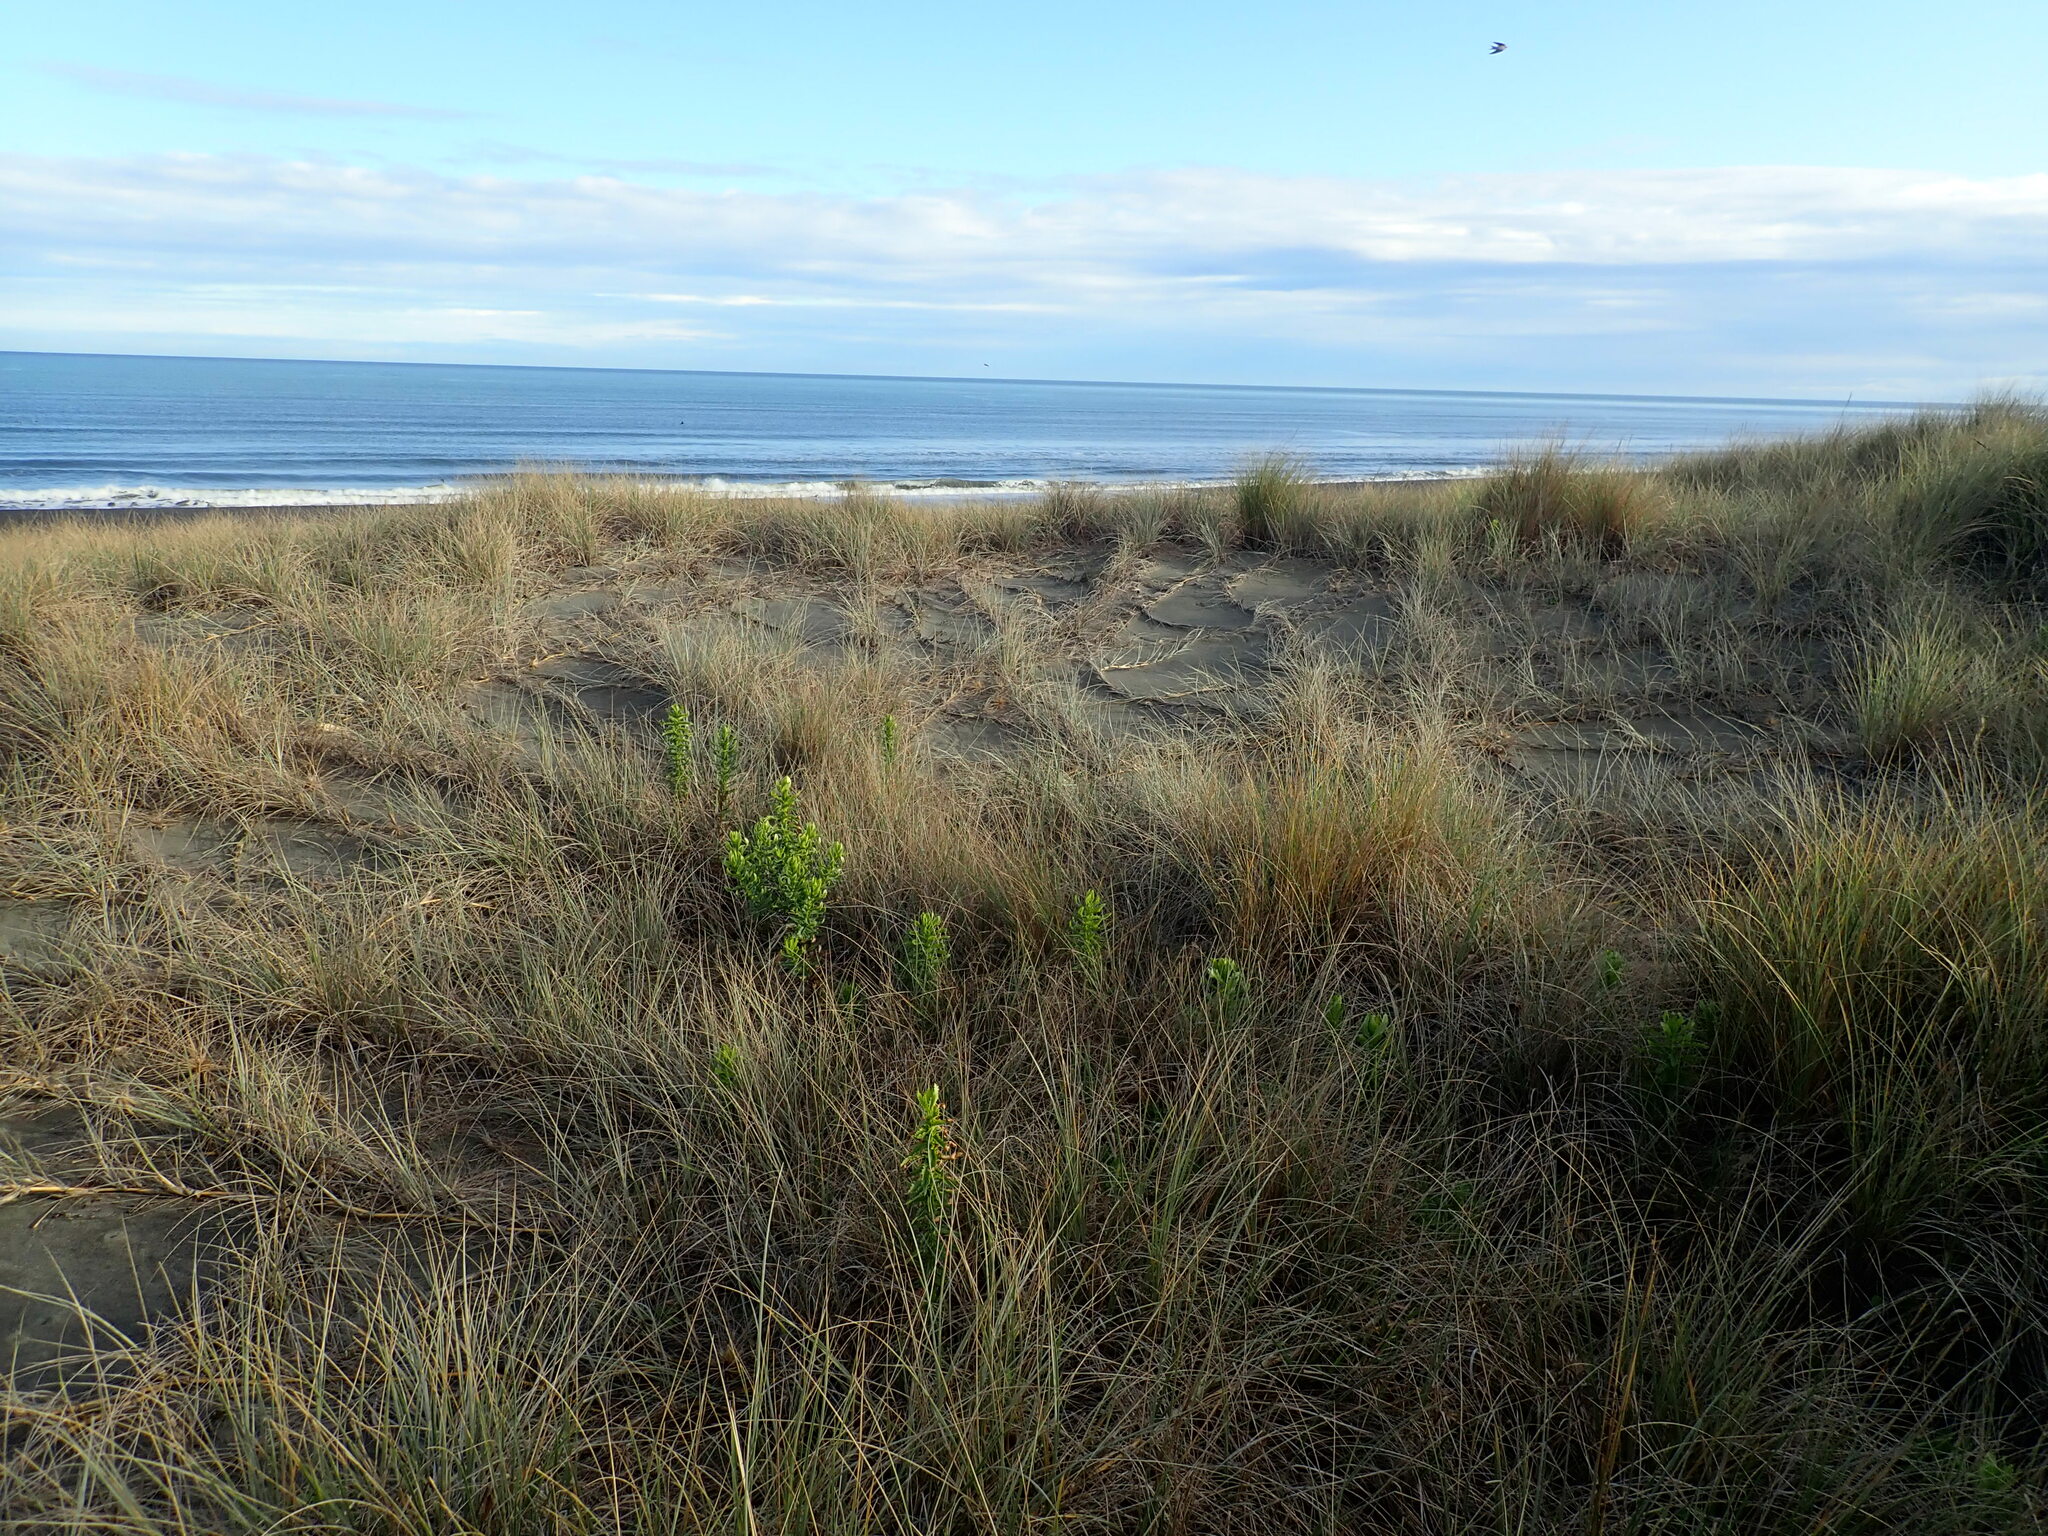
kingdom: Plantae
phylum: Tracheophyta
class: Magnoliopsida
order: Asterales
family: Asteraceae
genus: Senecio
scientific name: Senecio glastifolius
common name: Woad-leaved ragwort
